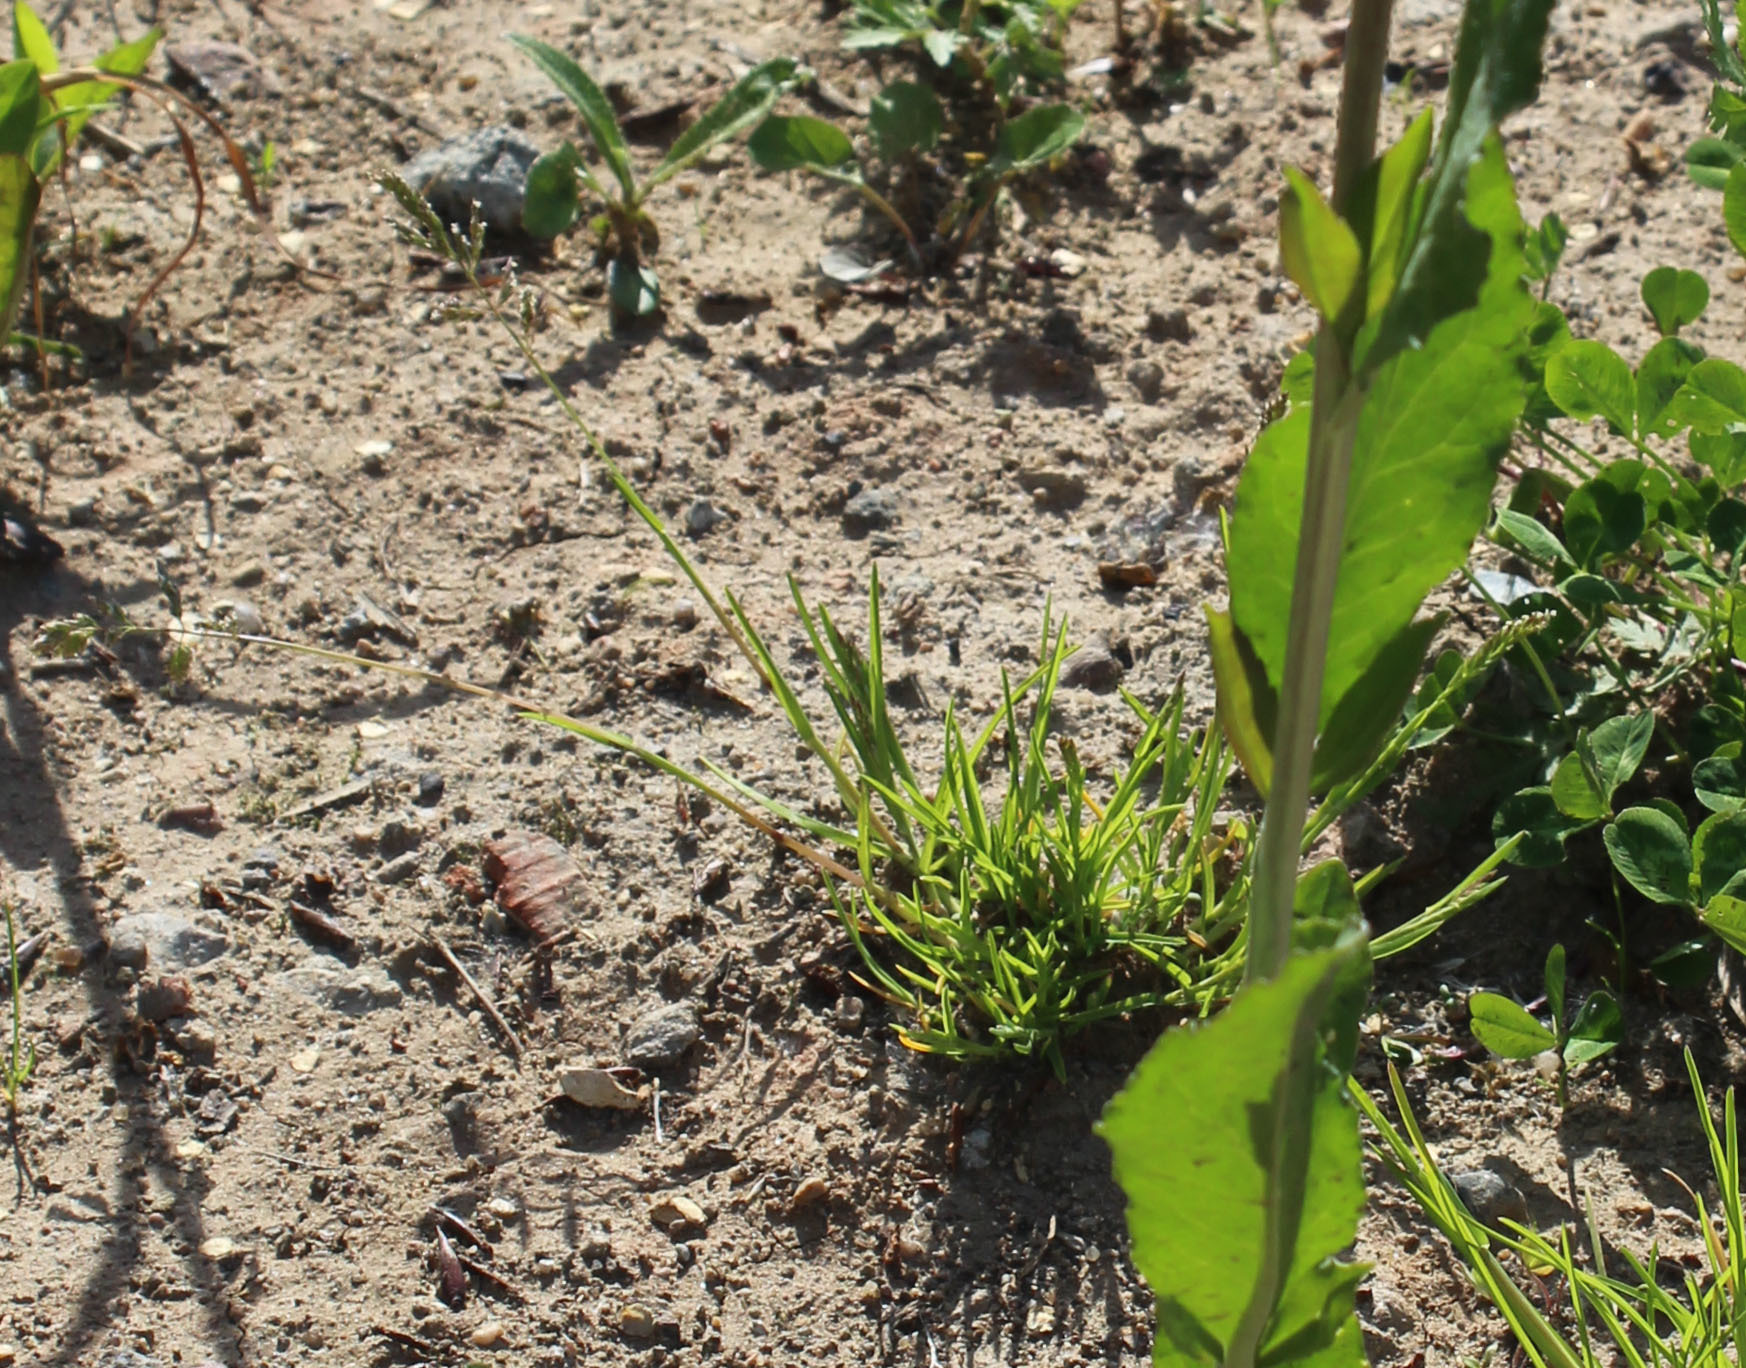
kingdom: Plantae
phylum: Tracheophyta
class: Liliopsida
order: Poales
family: Poaceae
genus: Poa
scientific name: Poa annua
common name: Annual bluegrass
